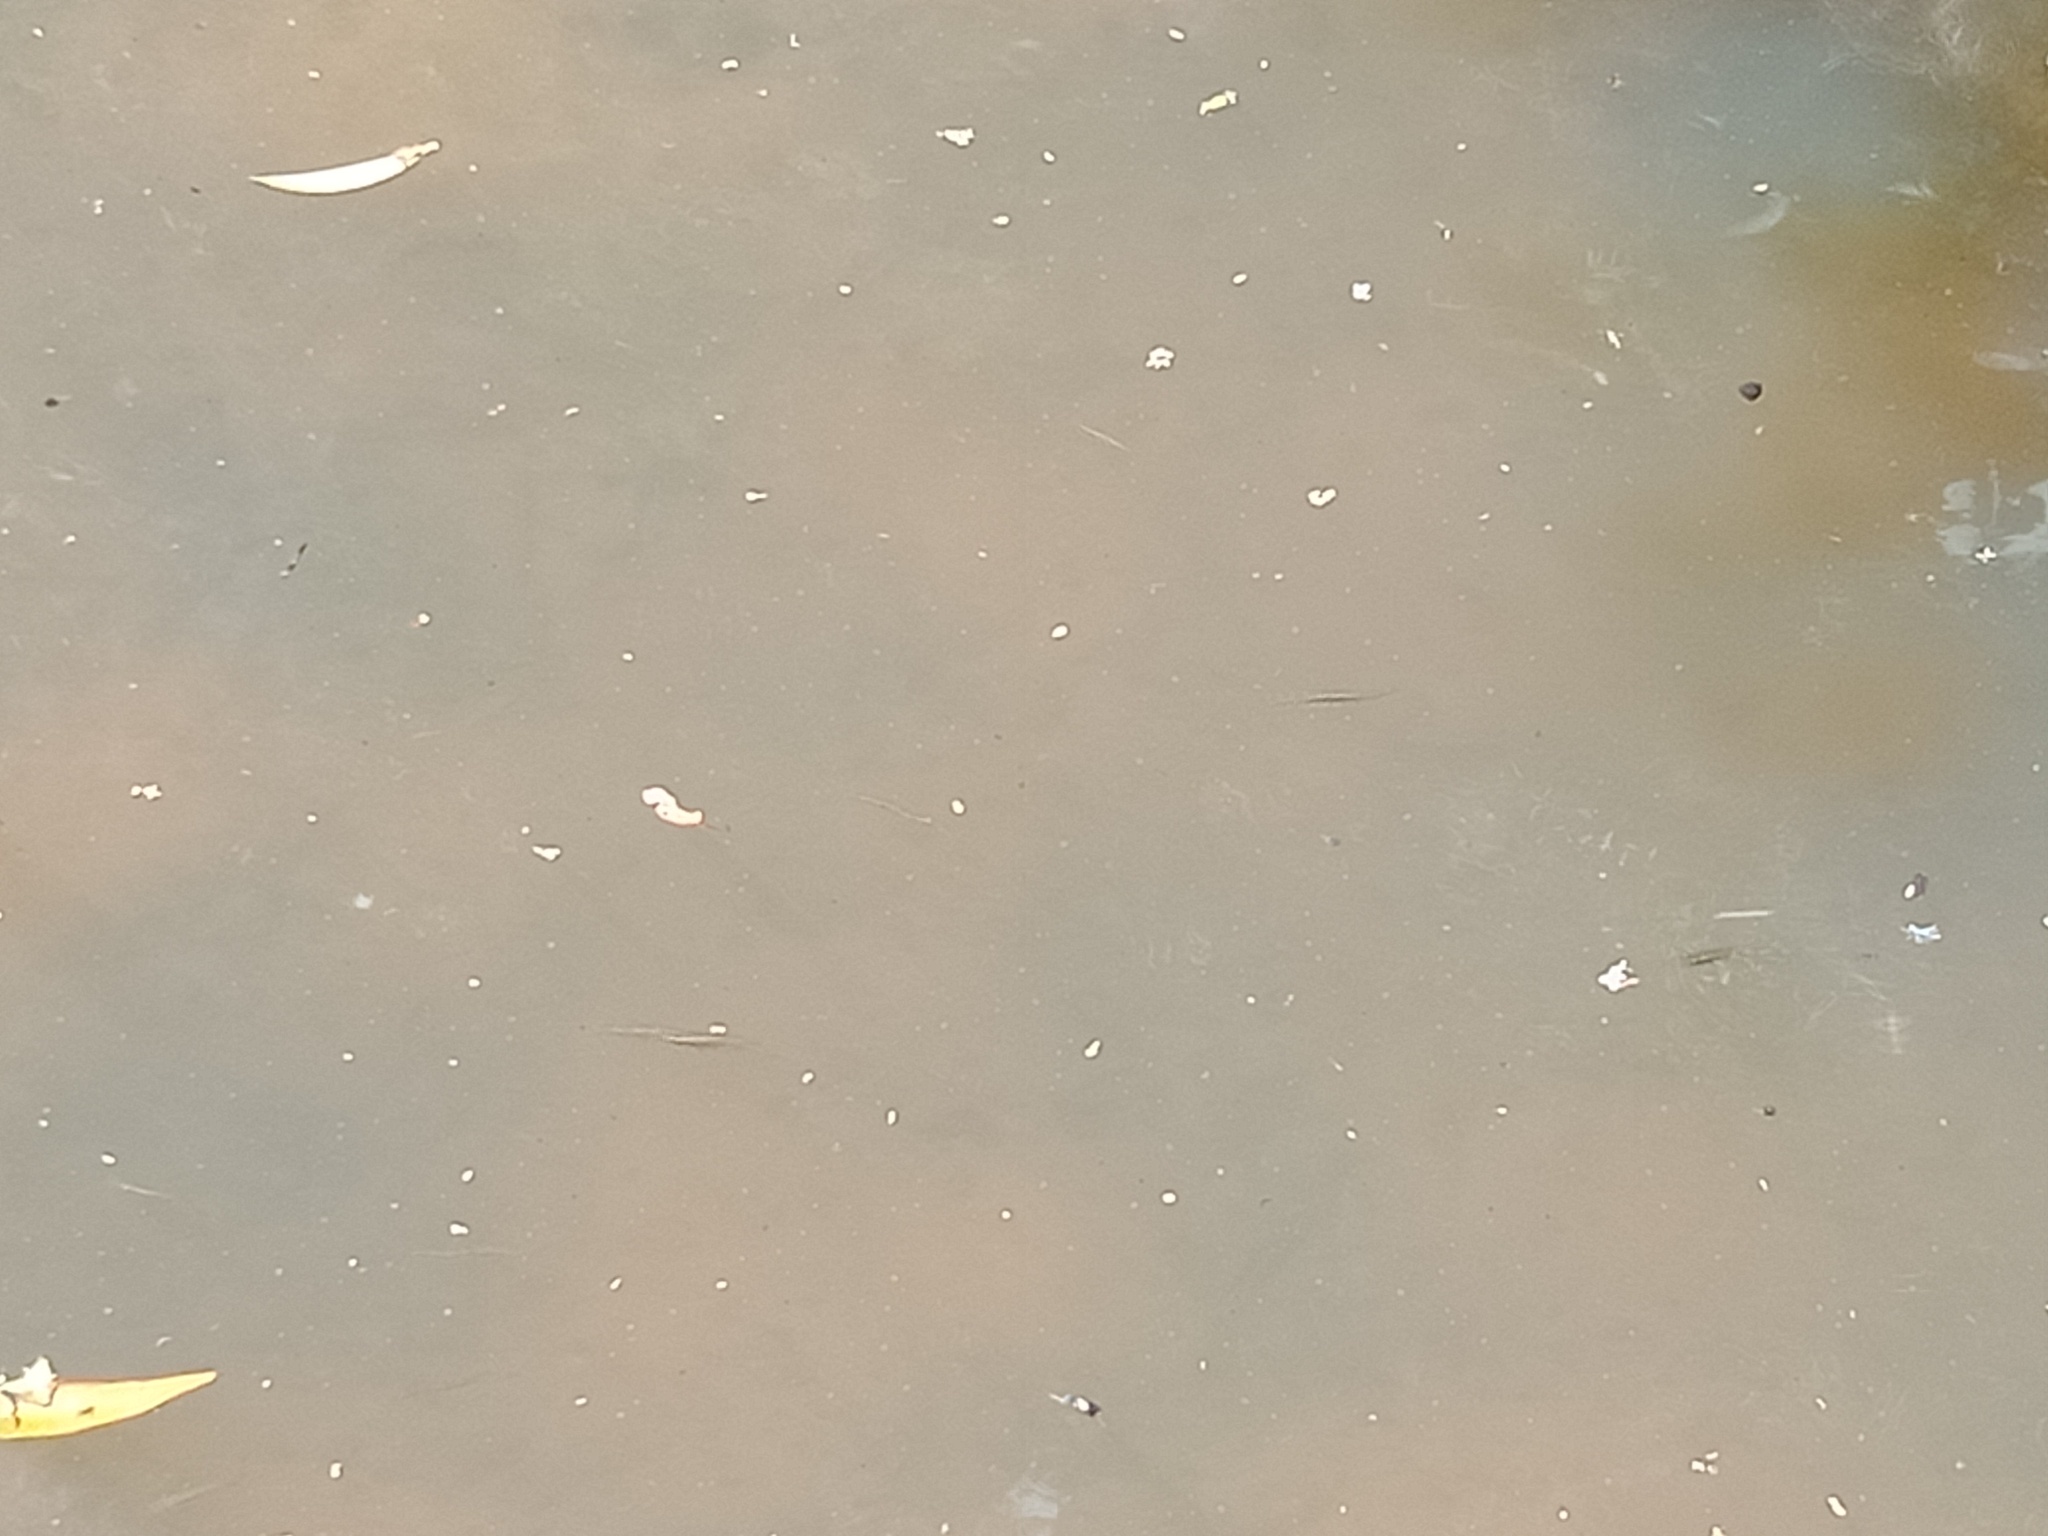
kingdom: Animalia
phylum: Chordata
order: Cyprinodontiformes
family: Poeciliidae
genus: Gambusia
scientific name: Gambusia holbrooki
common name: Eastern mosquitofish
